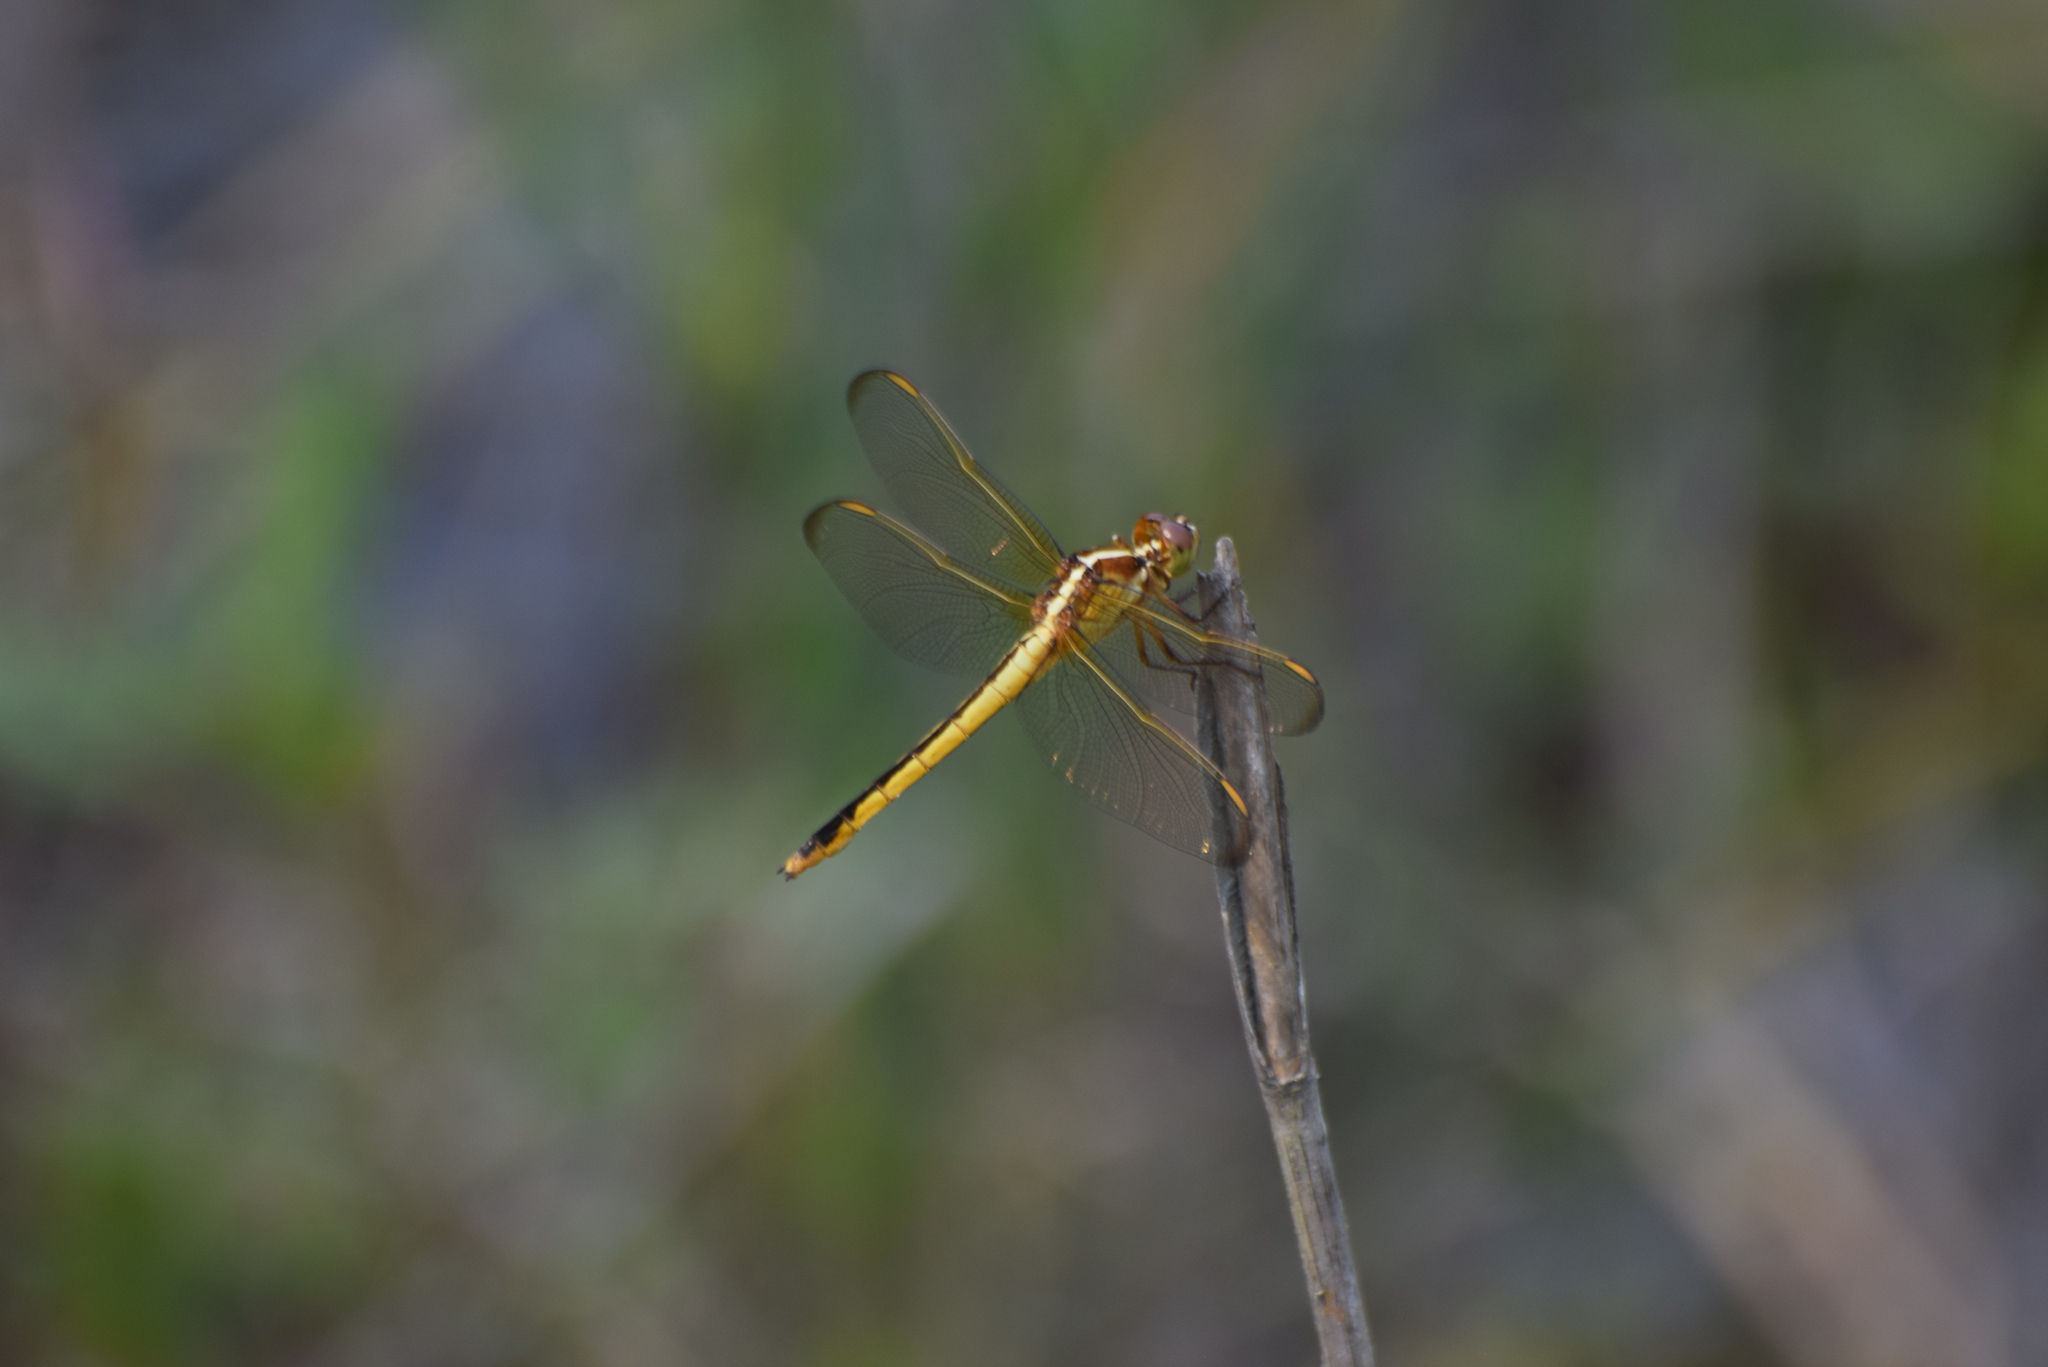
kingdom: Animalia
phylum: Arthropoda
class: Insecta
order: Odonata
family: Libellulidae
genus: Libellula
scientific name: Libellula needhami
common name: Needham's skimmer
